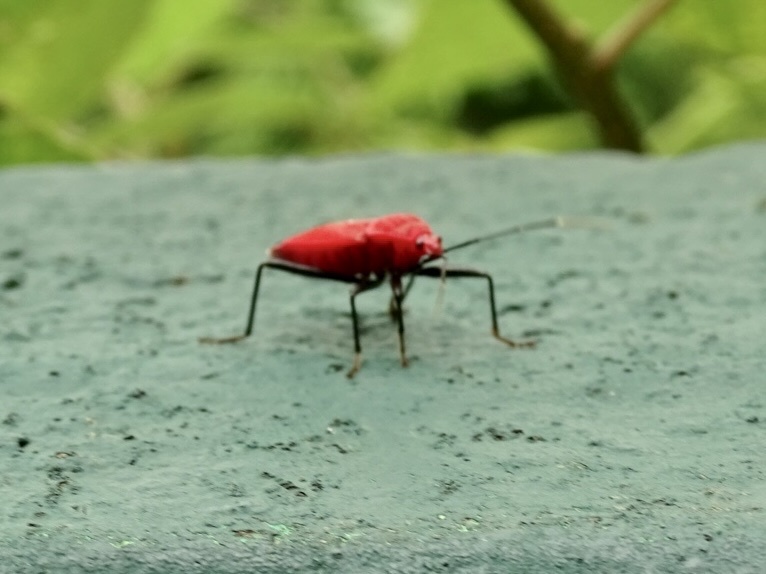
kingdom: Animalia
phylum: Arthropoda
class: Insecta
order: Hemiptera
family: Pyrrhocoridae
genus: Antilochus
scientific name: Antilochus
